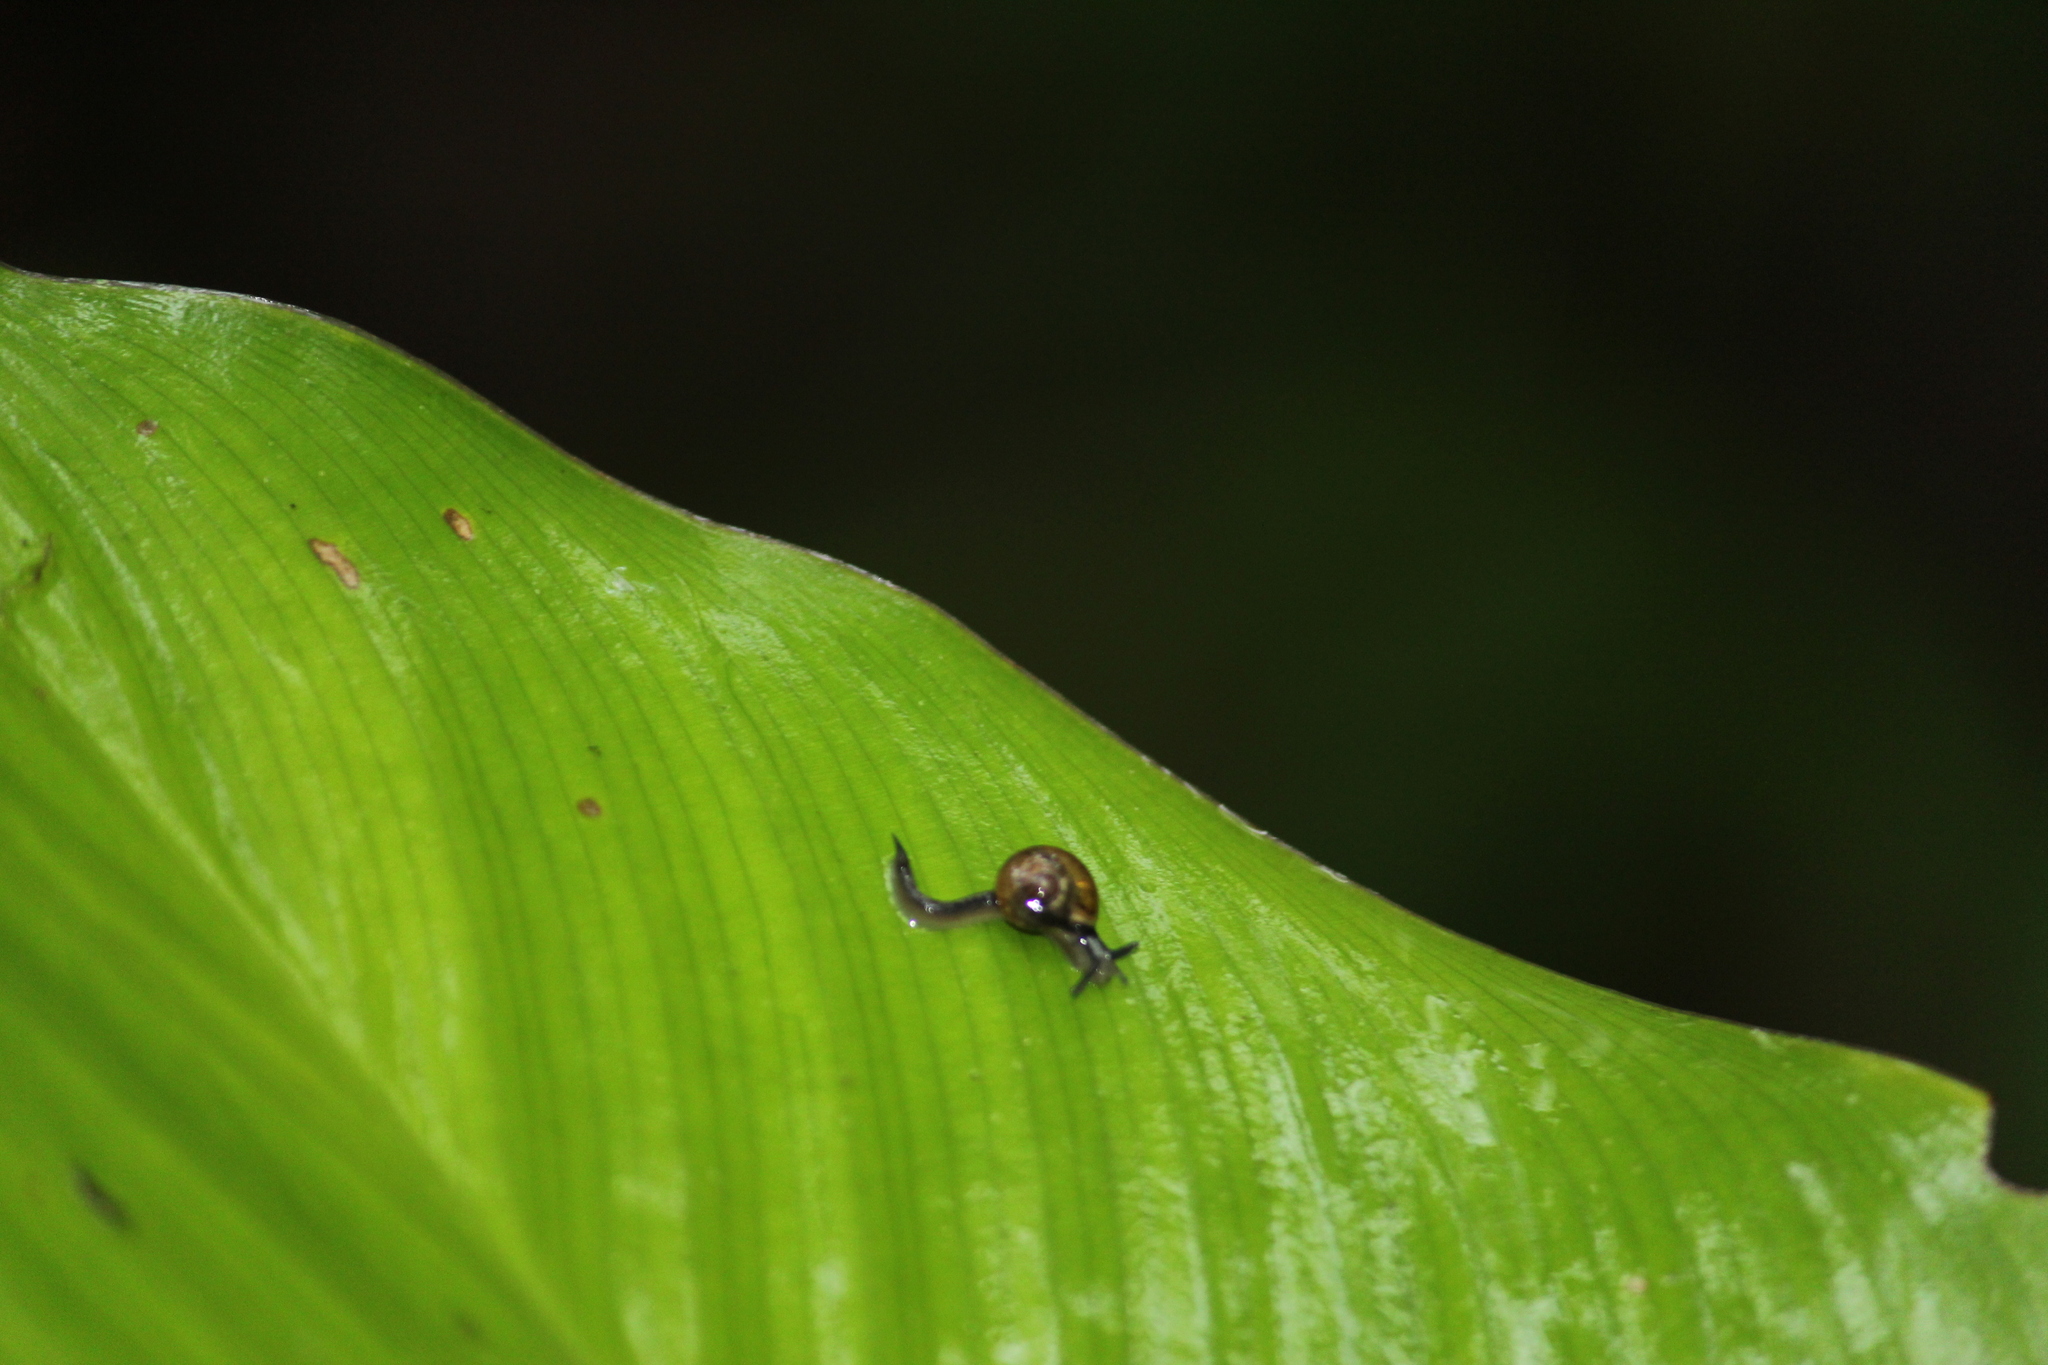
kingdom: Animalia
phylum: Mollusca
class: Gastropoda
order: Stylommatophora
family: Helicarionidae
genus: Ovachlamys
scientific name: Ovachlamys fulgens
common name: Jumping snail
